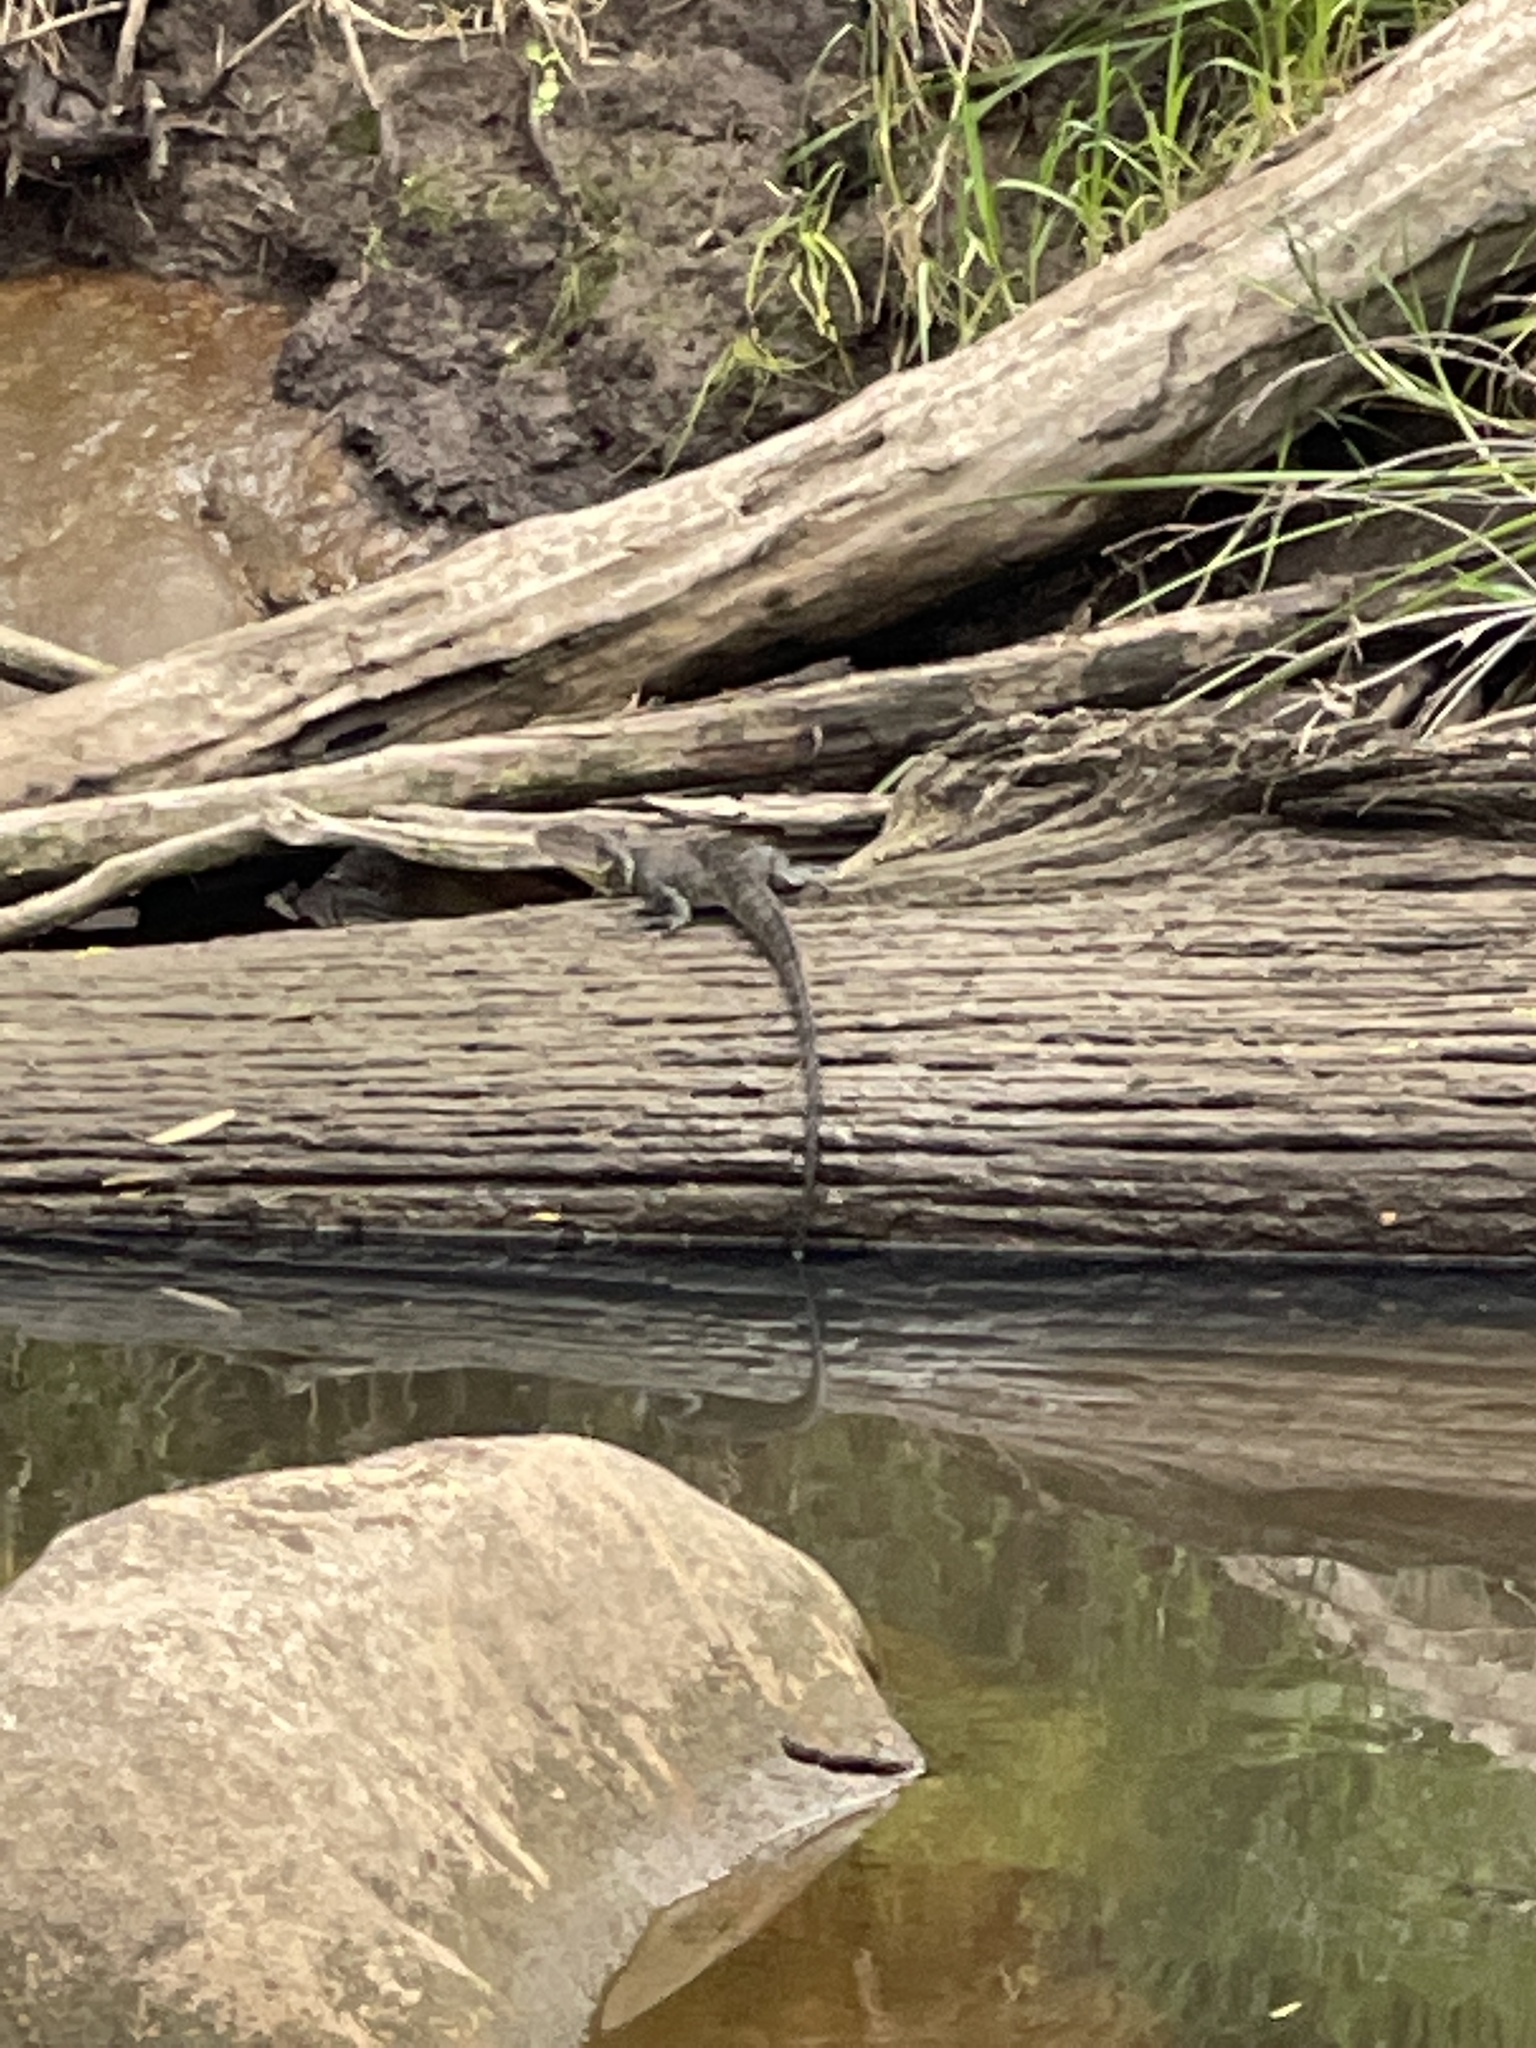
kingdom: Animalia
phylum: Chordata
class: Squamata
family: Agamidae
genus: Intellagama
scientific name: Intellagama lesueurii
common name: Eastern water dragon
